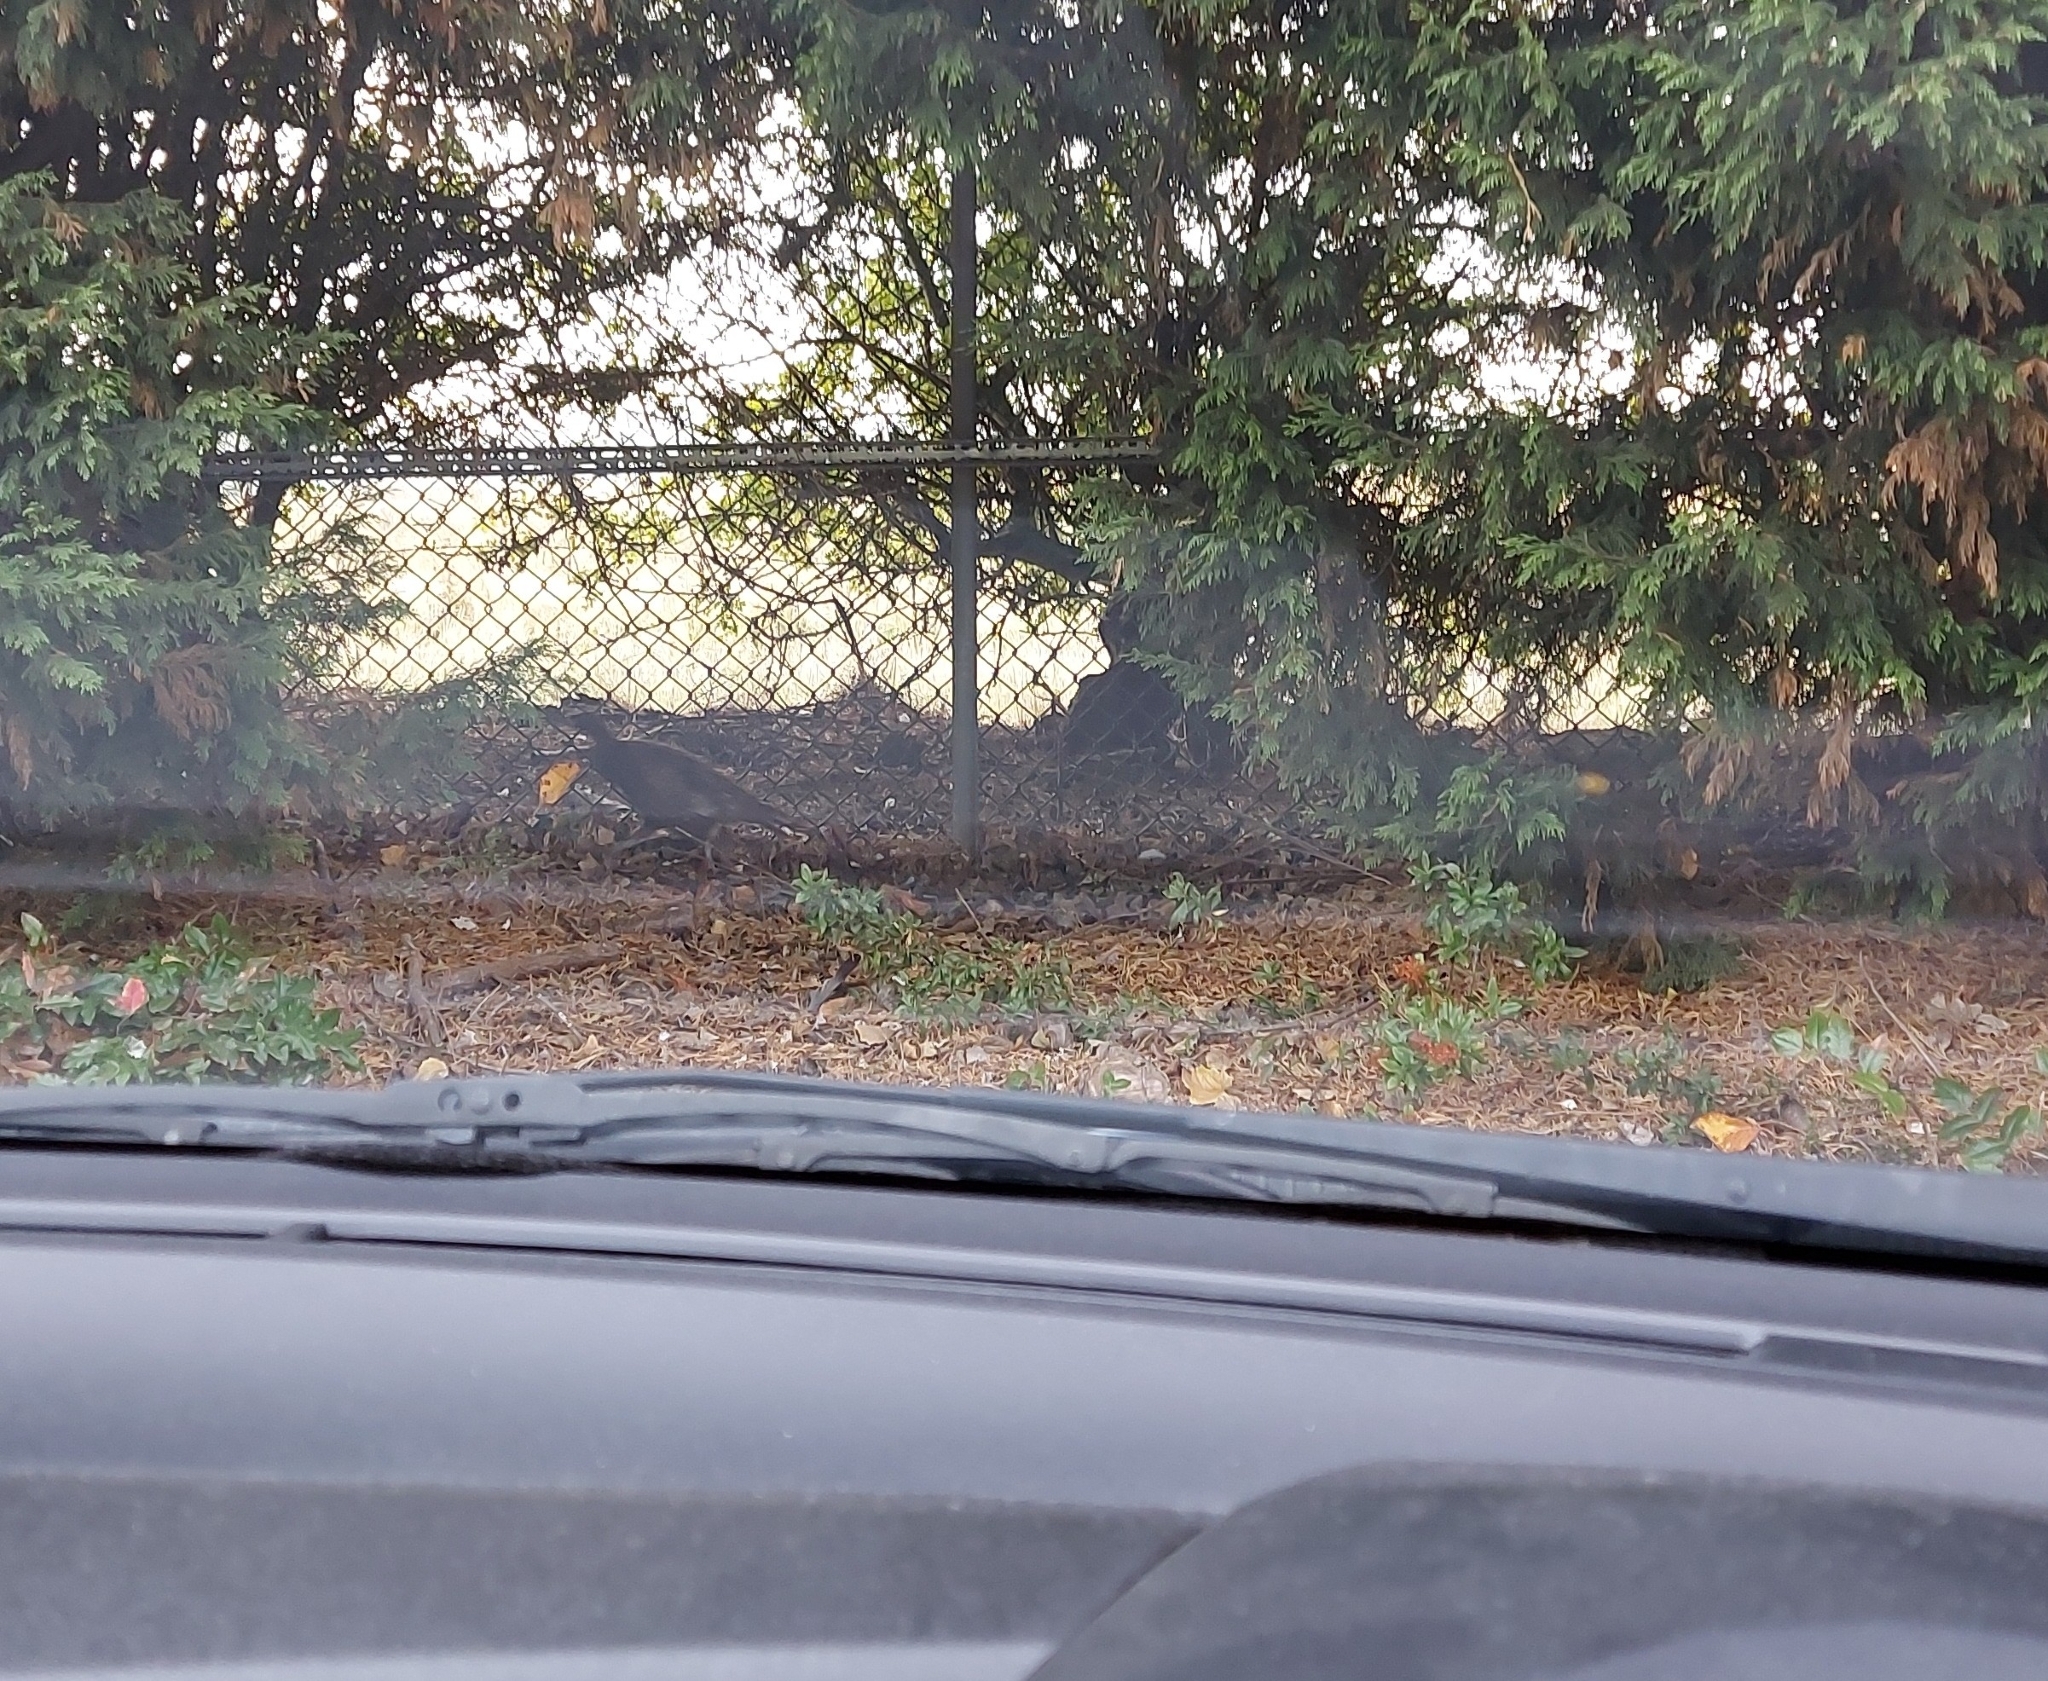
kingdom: Animalia
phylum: Chordata
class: Aves
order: Galliformes
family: Phasianidae
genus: Phasianus
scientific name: Phasianus colchicus
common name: Common pheasant
